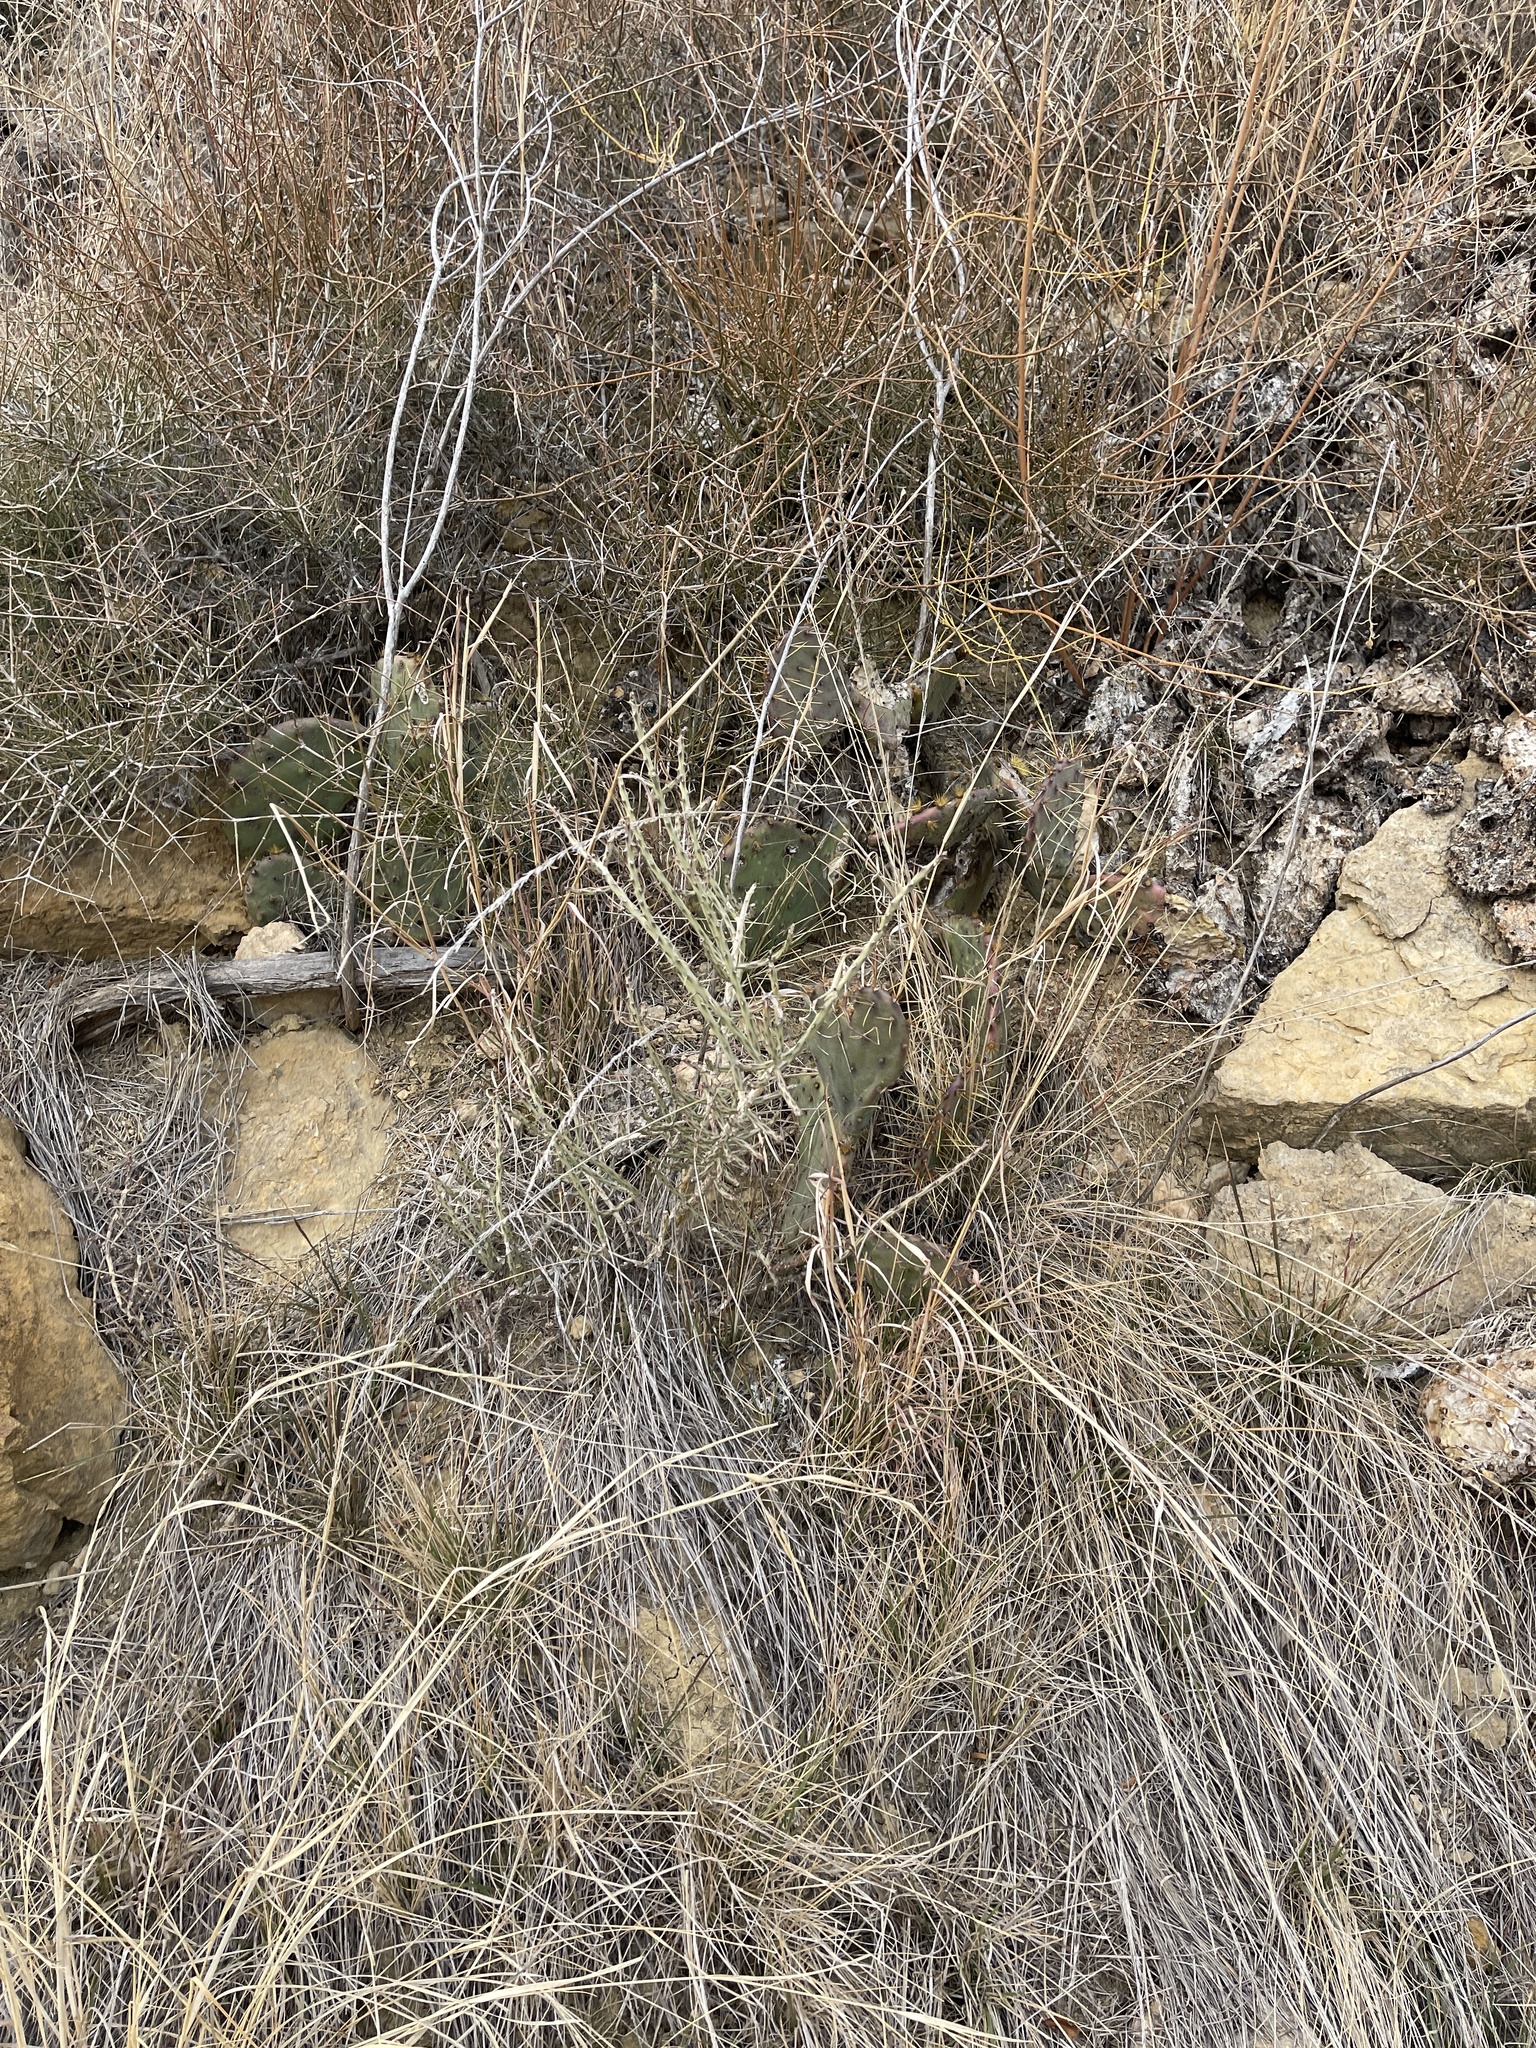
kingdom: Plantae
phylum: Tracheophyta
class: Magnoliopsida
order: Caryophyllales
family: Cactaceae
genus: Cylindropuntia
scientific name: Cylindropuntia leptocaulis
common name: Christmas cactus
